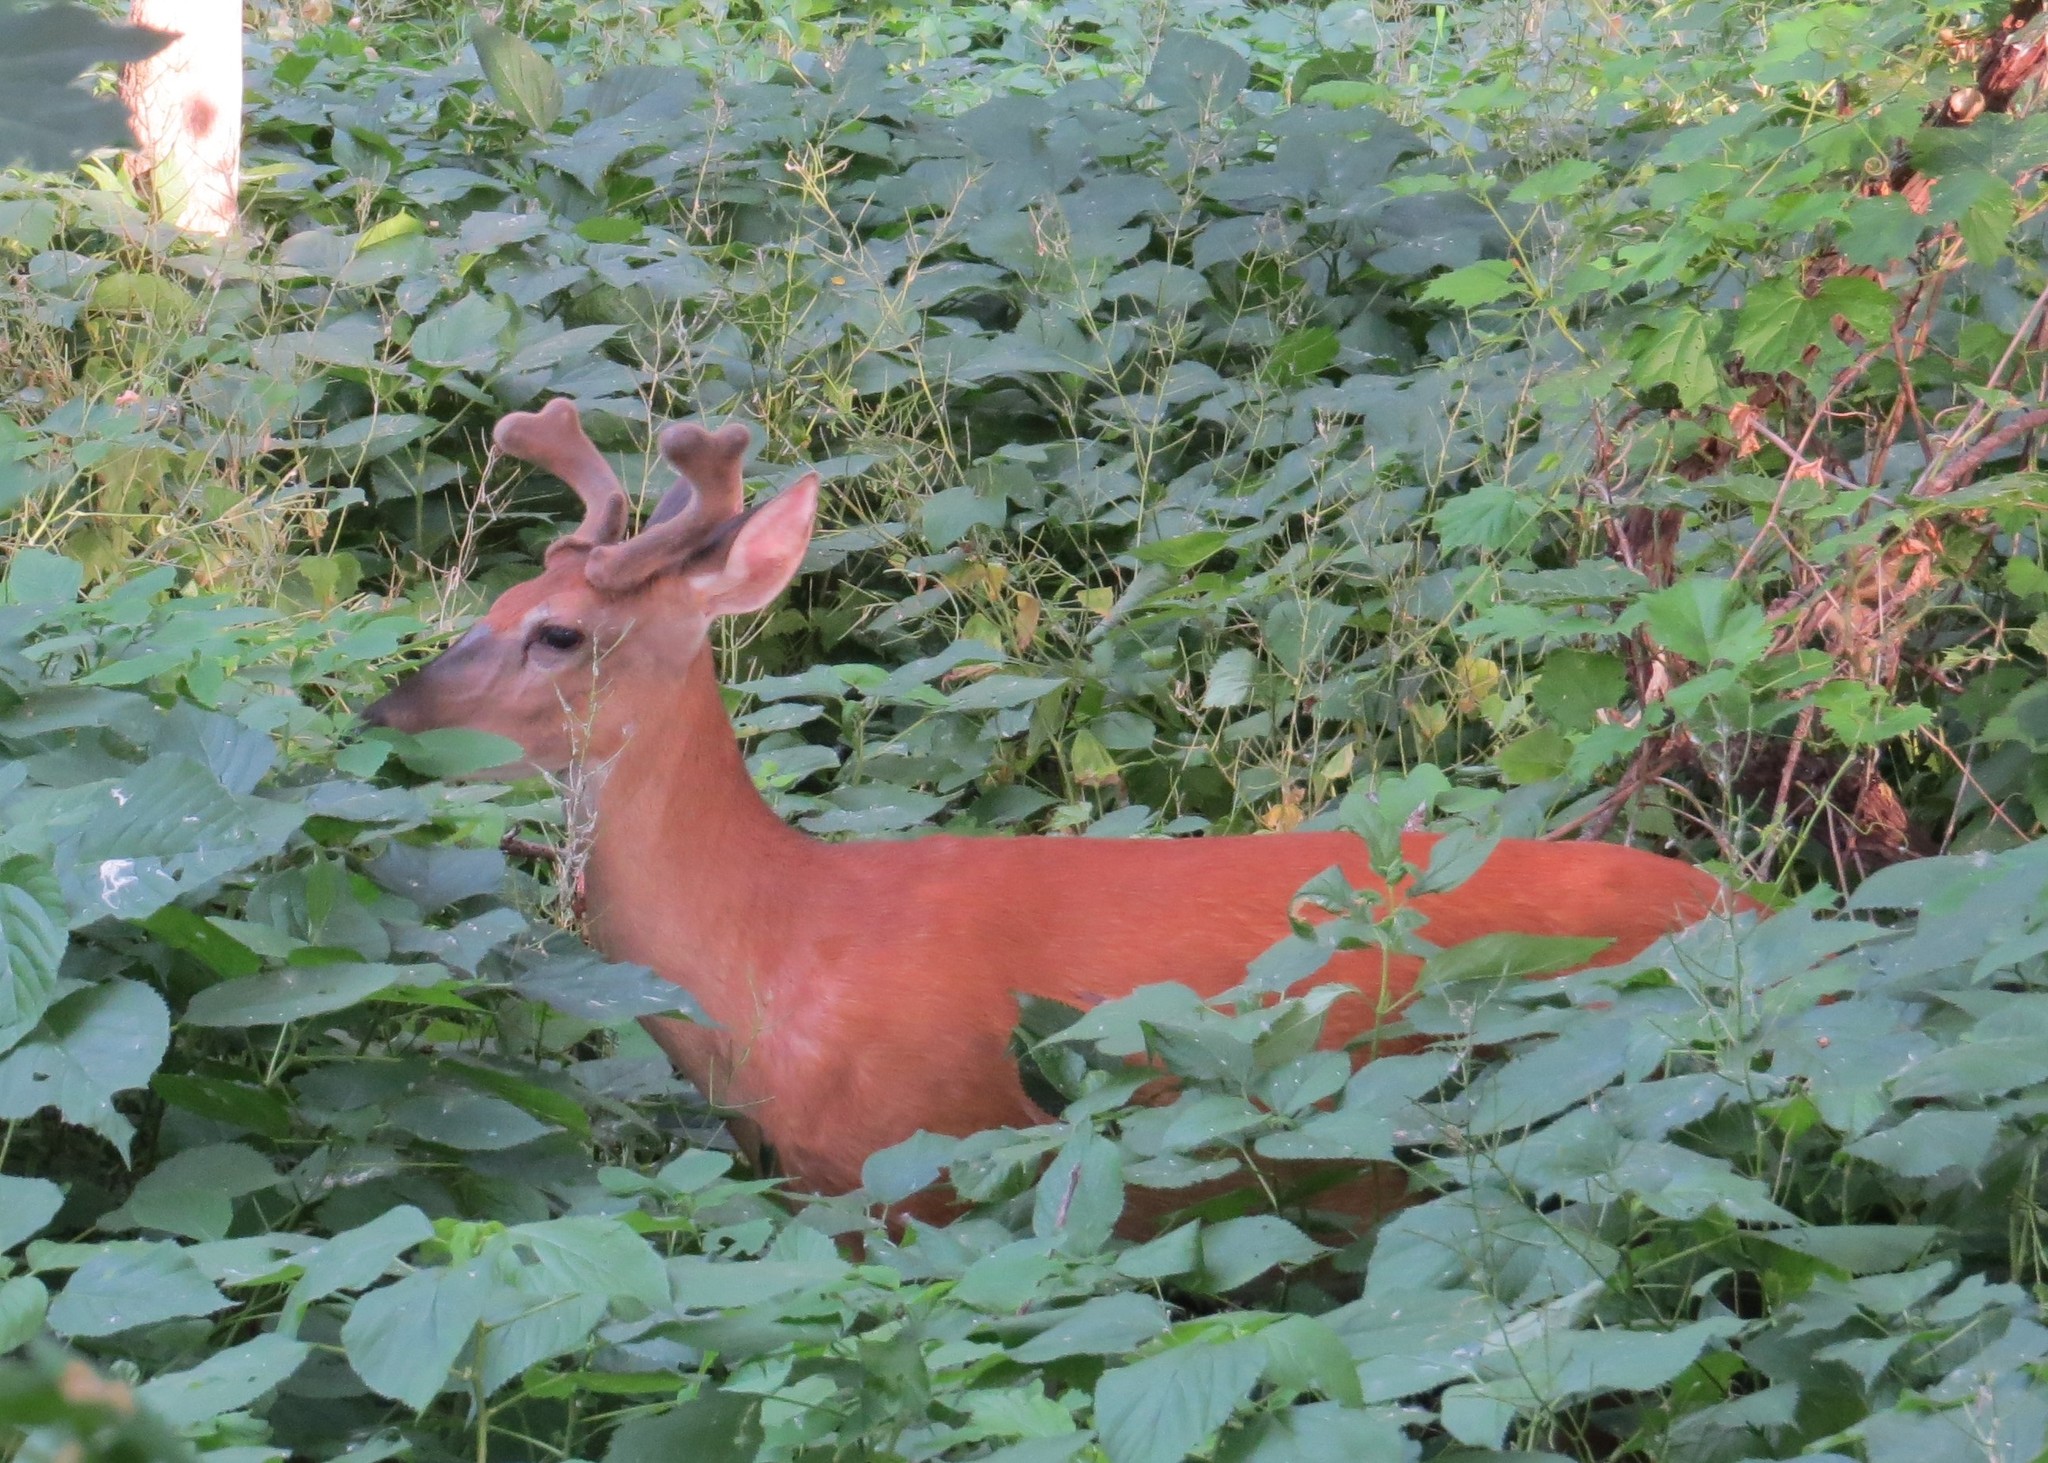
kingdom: Animalia
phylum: Chordata
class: Mammalia
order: Artiodactyla
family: Cervidae
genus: Odocoileus
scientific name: Odocoileus virginianus
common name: White-tailed deer
